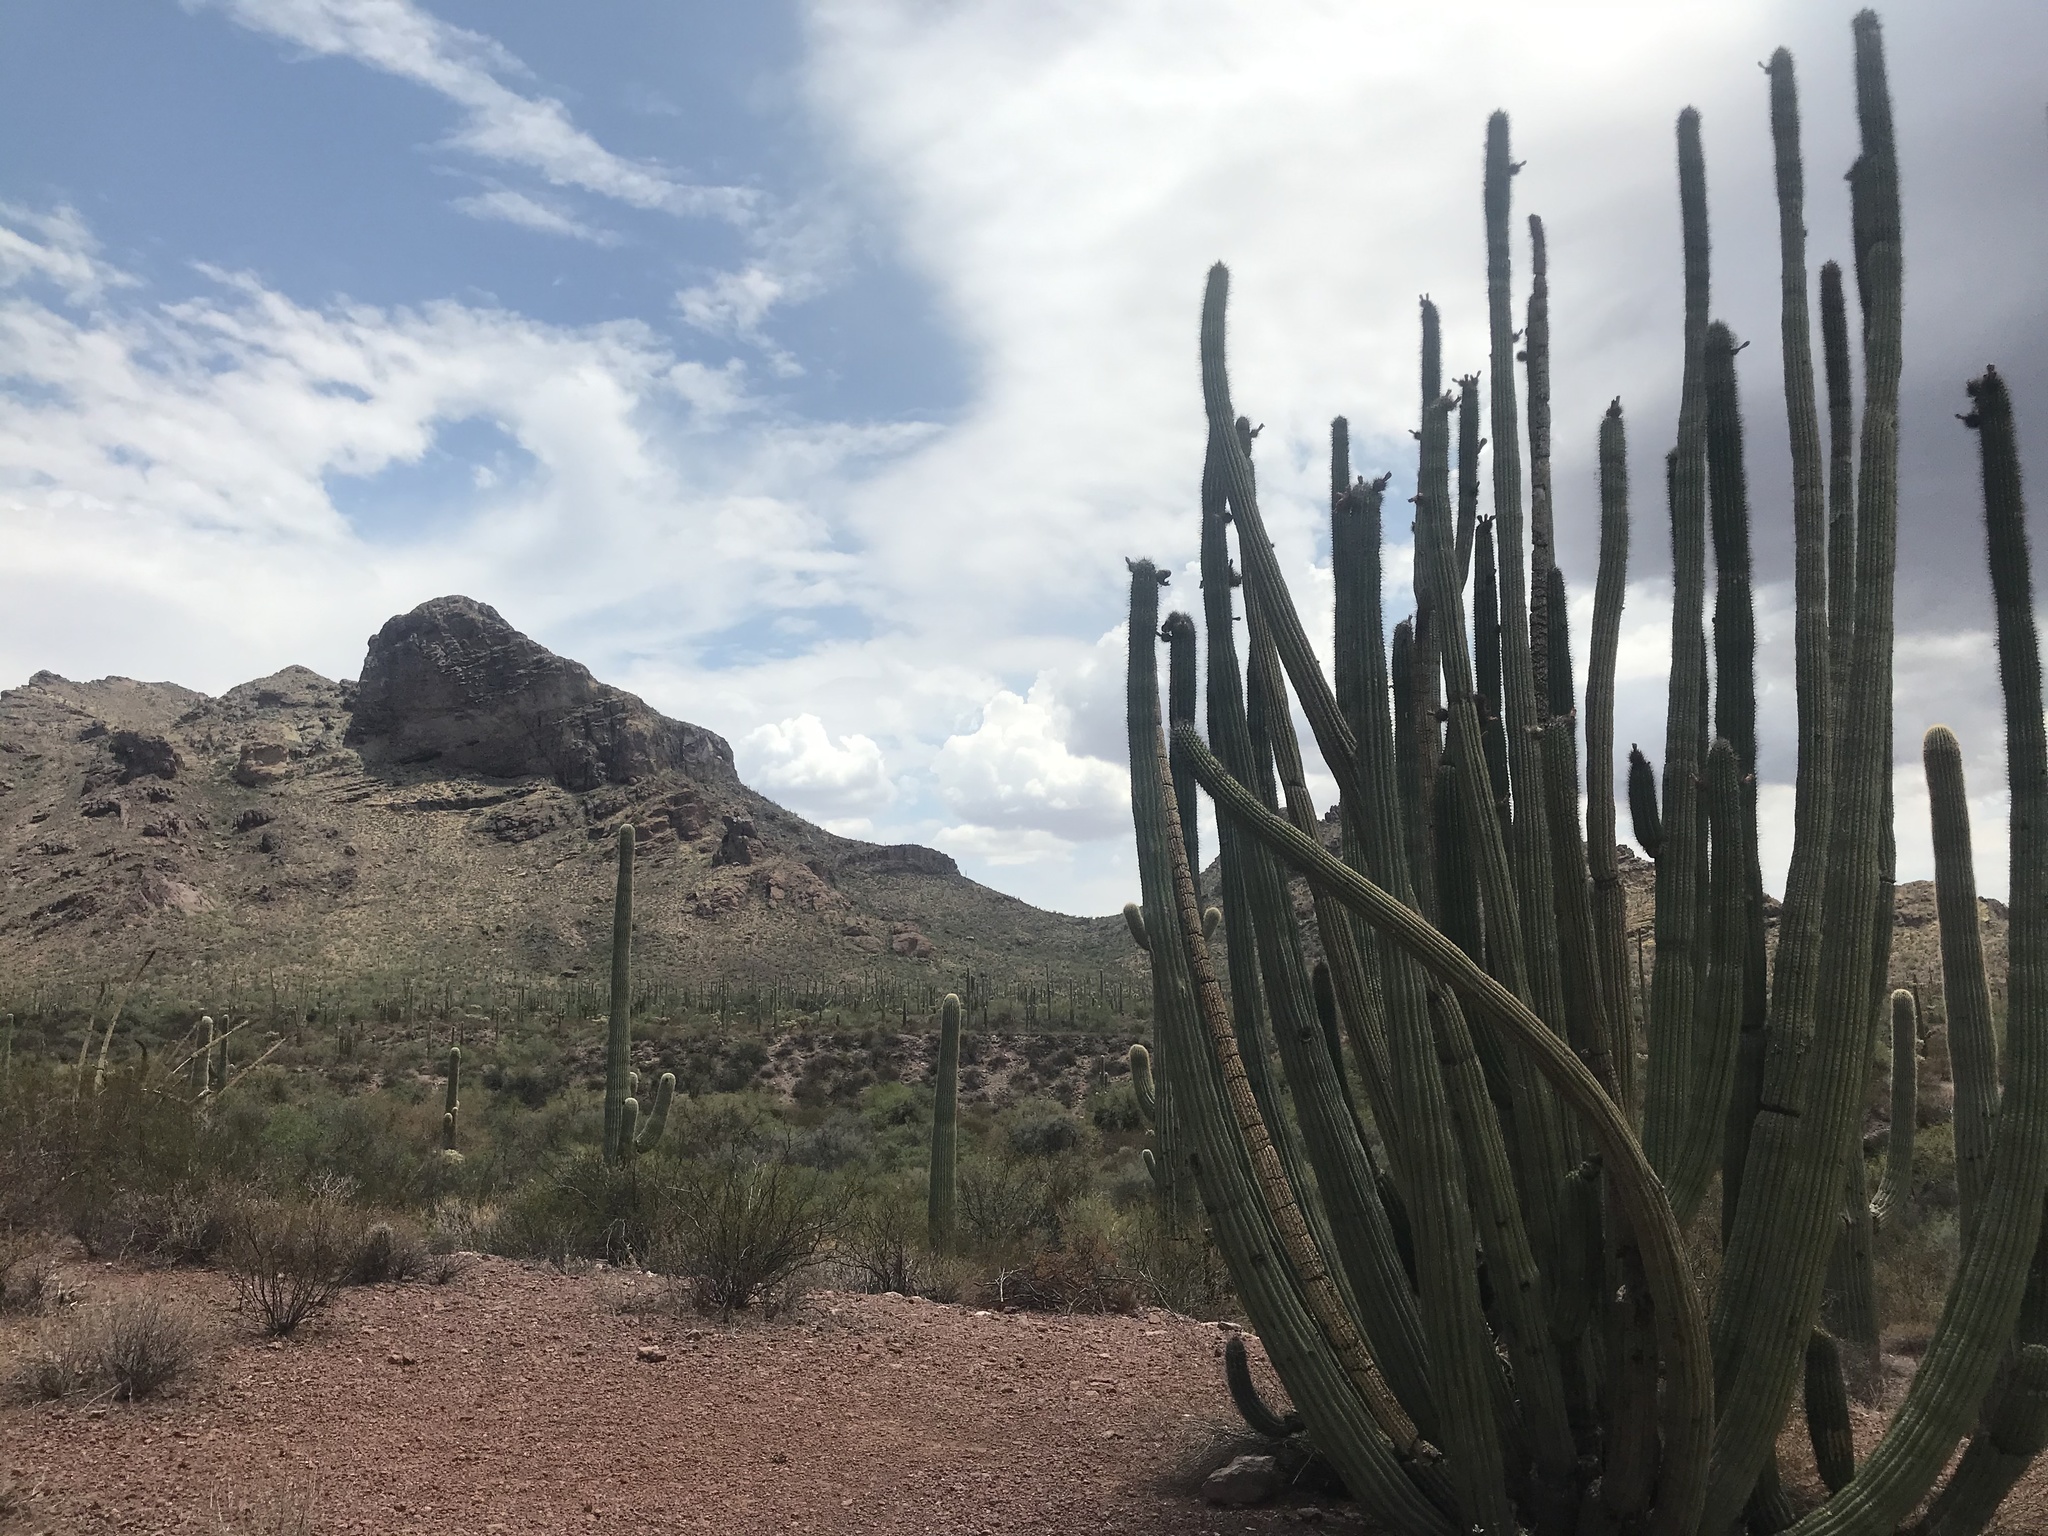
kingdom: Plantae
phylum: Tracheophyta
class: Magnoliopsida
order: Caryophyllales
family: Cactaceae
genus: Stenocereus
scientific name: Stenocereus thurberi
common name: Organ pipe cactus
